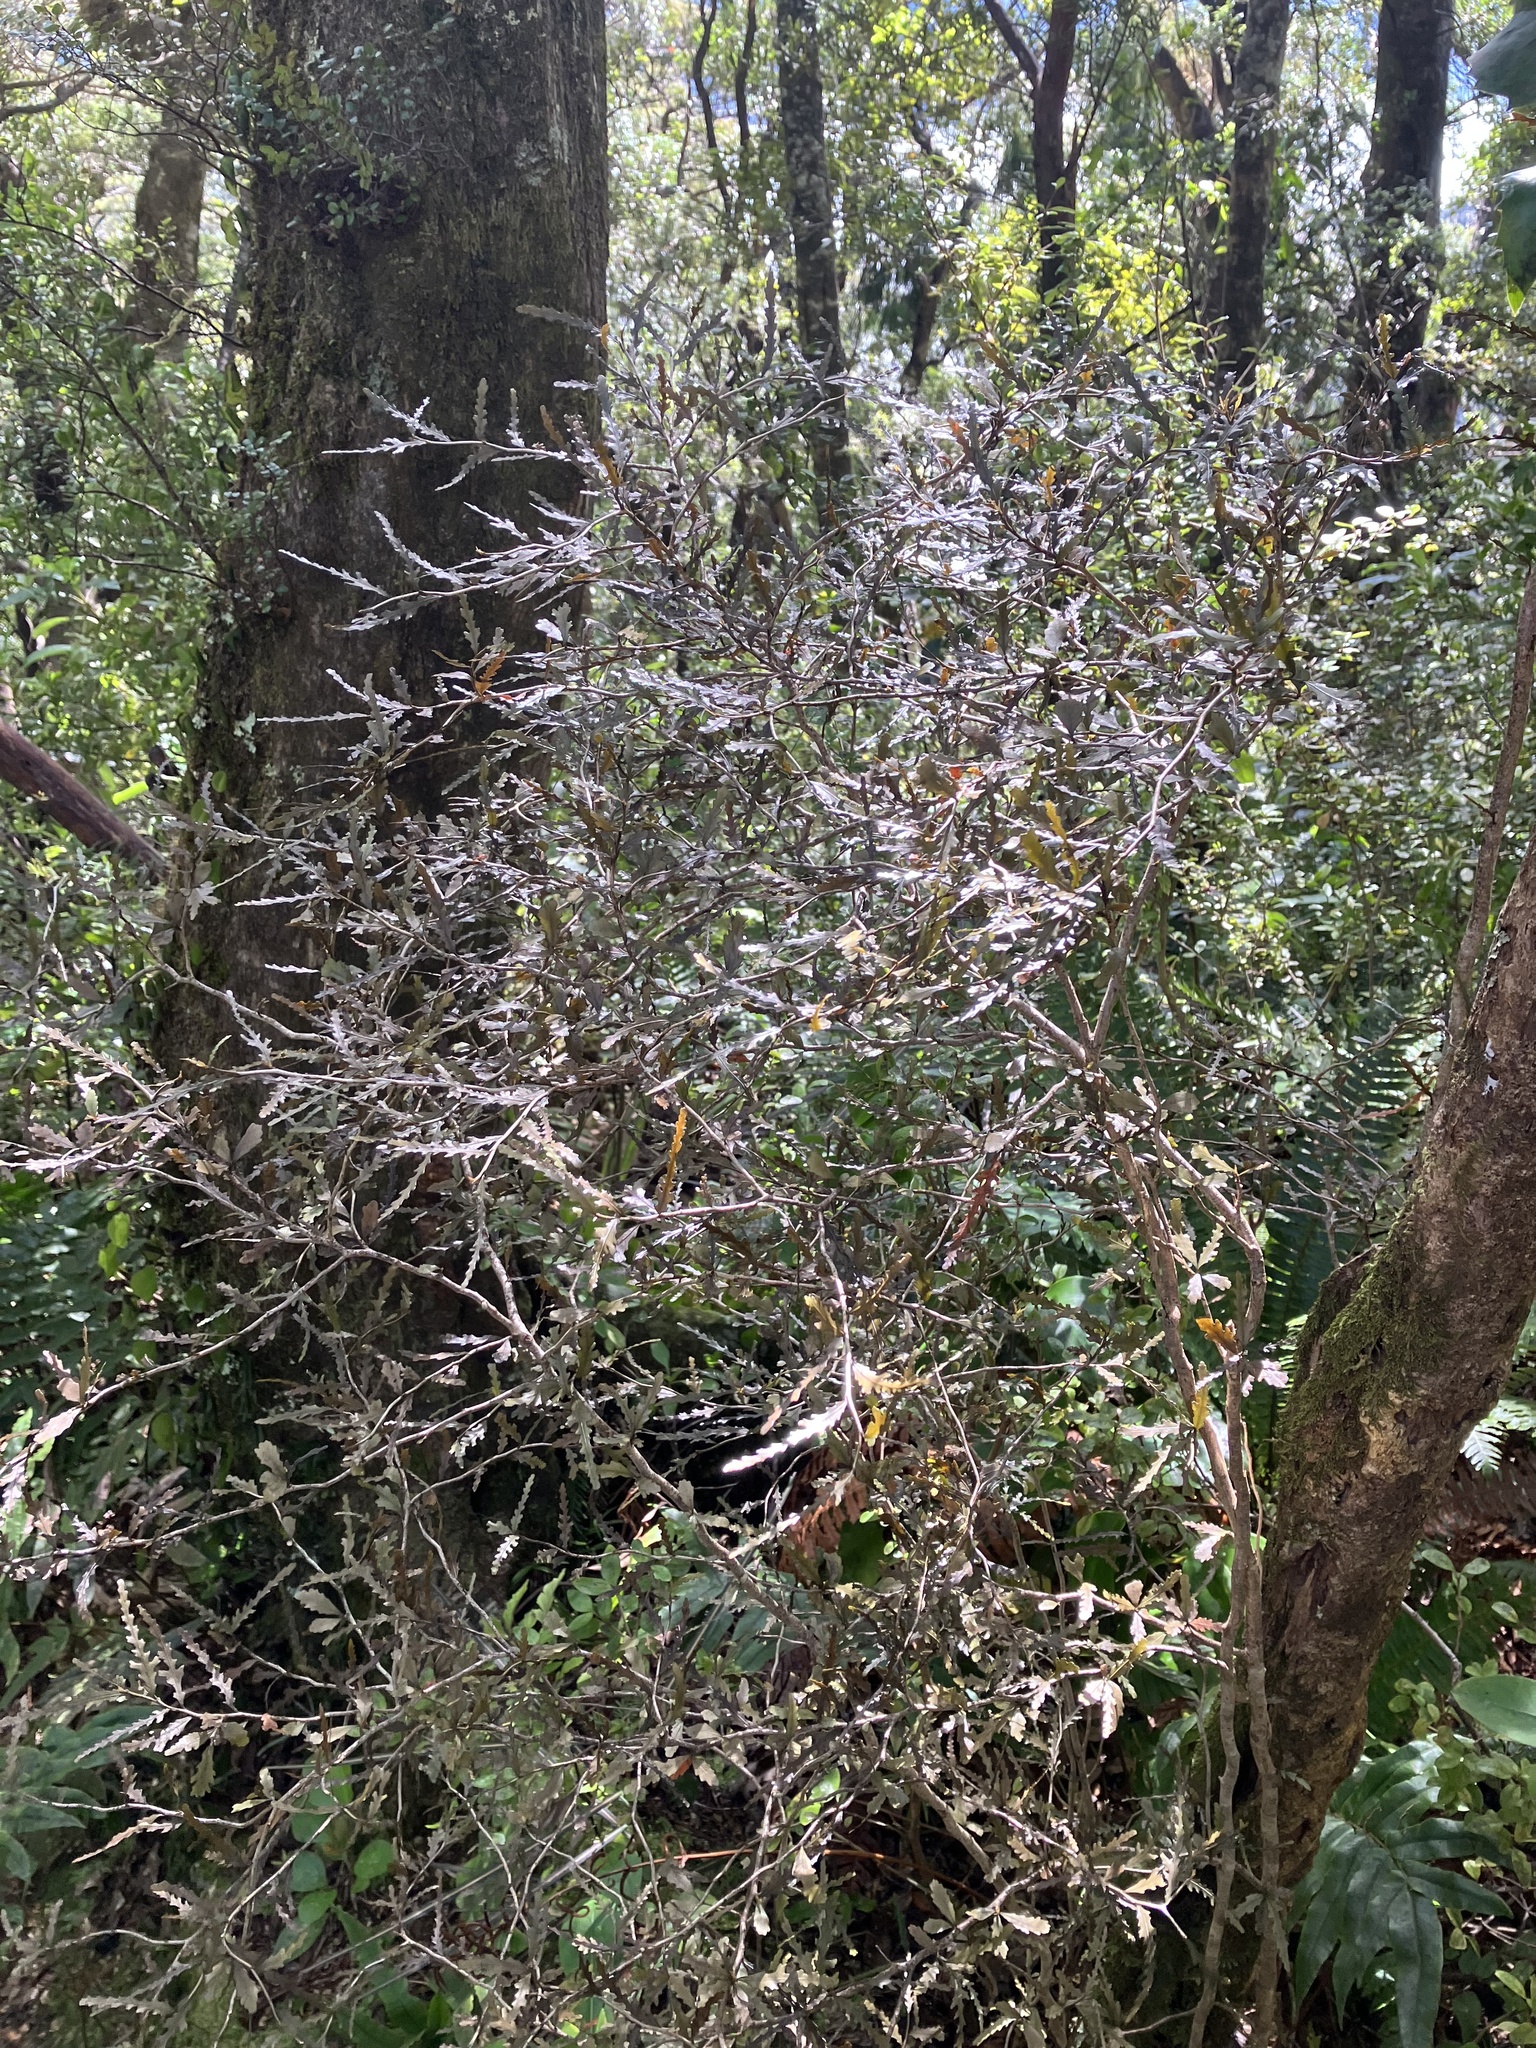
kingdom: Plantae
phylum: Tracheophyta
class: Magnoliopsida
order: Oxalidales
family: Elaeocarpaceae
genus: Elaeocarpus
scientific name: Elaeocarpus hookerianus
